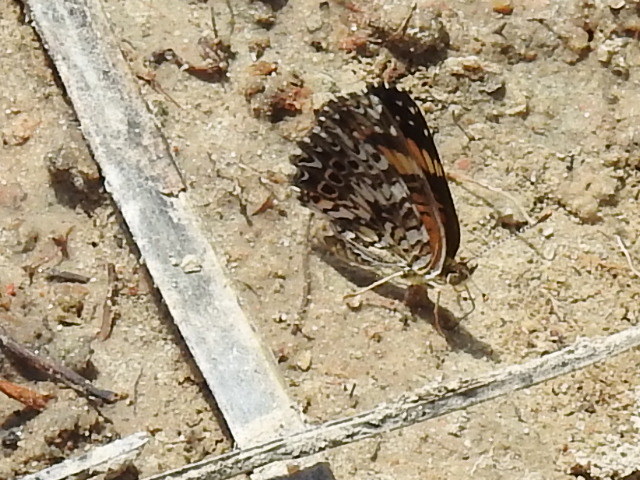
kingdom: Animalia
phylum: Arthropoda
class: Insecta
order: Lepidoptera
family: Nymphalidae
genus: Chlosyne
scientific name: Chlosyne gorgone
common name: Gorgone checkerspot
